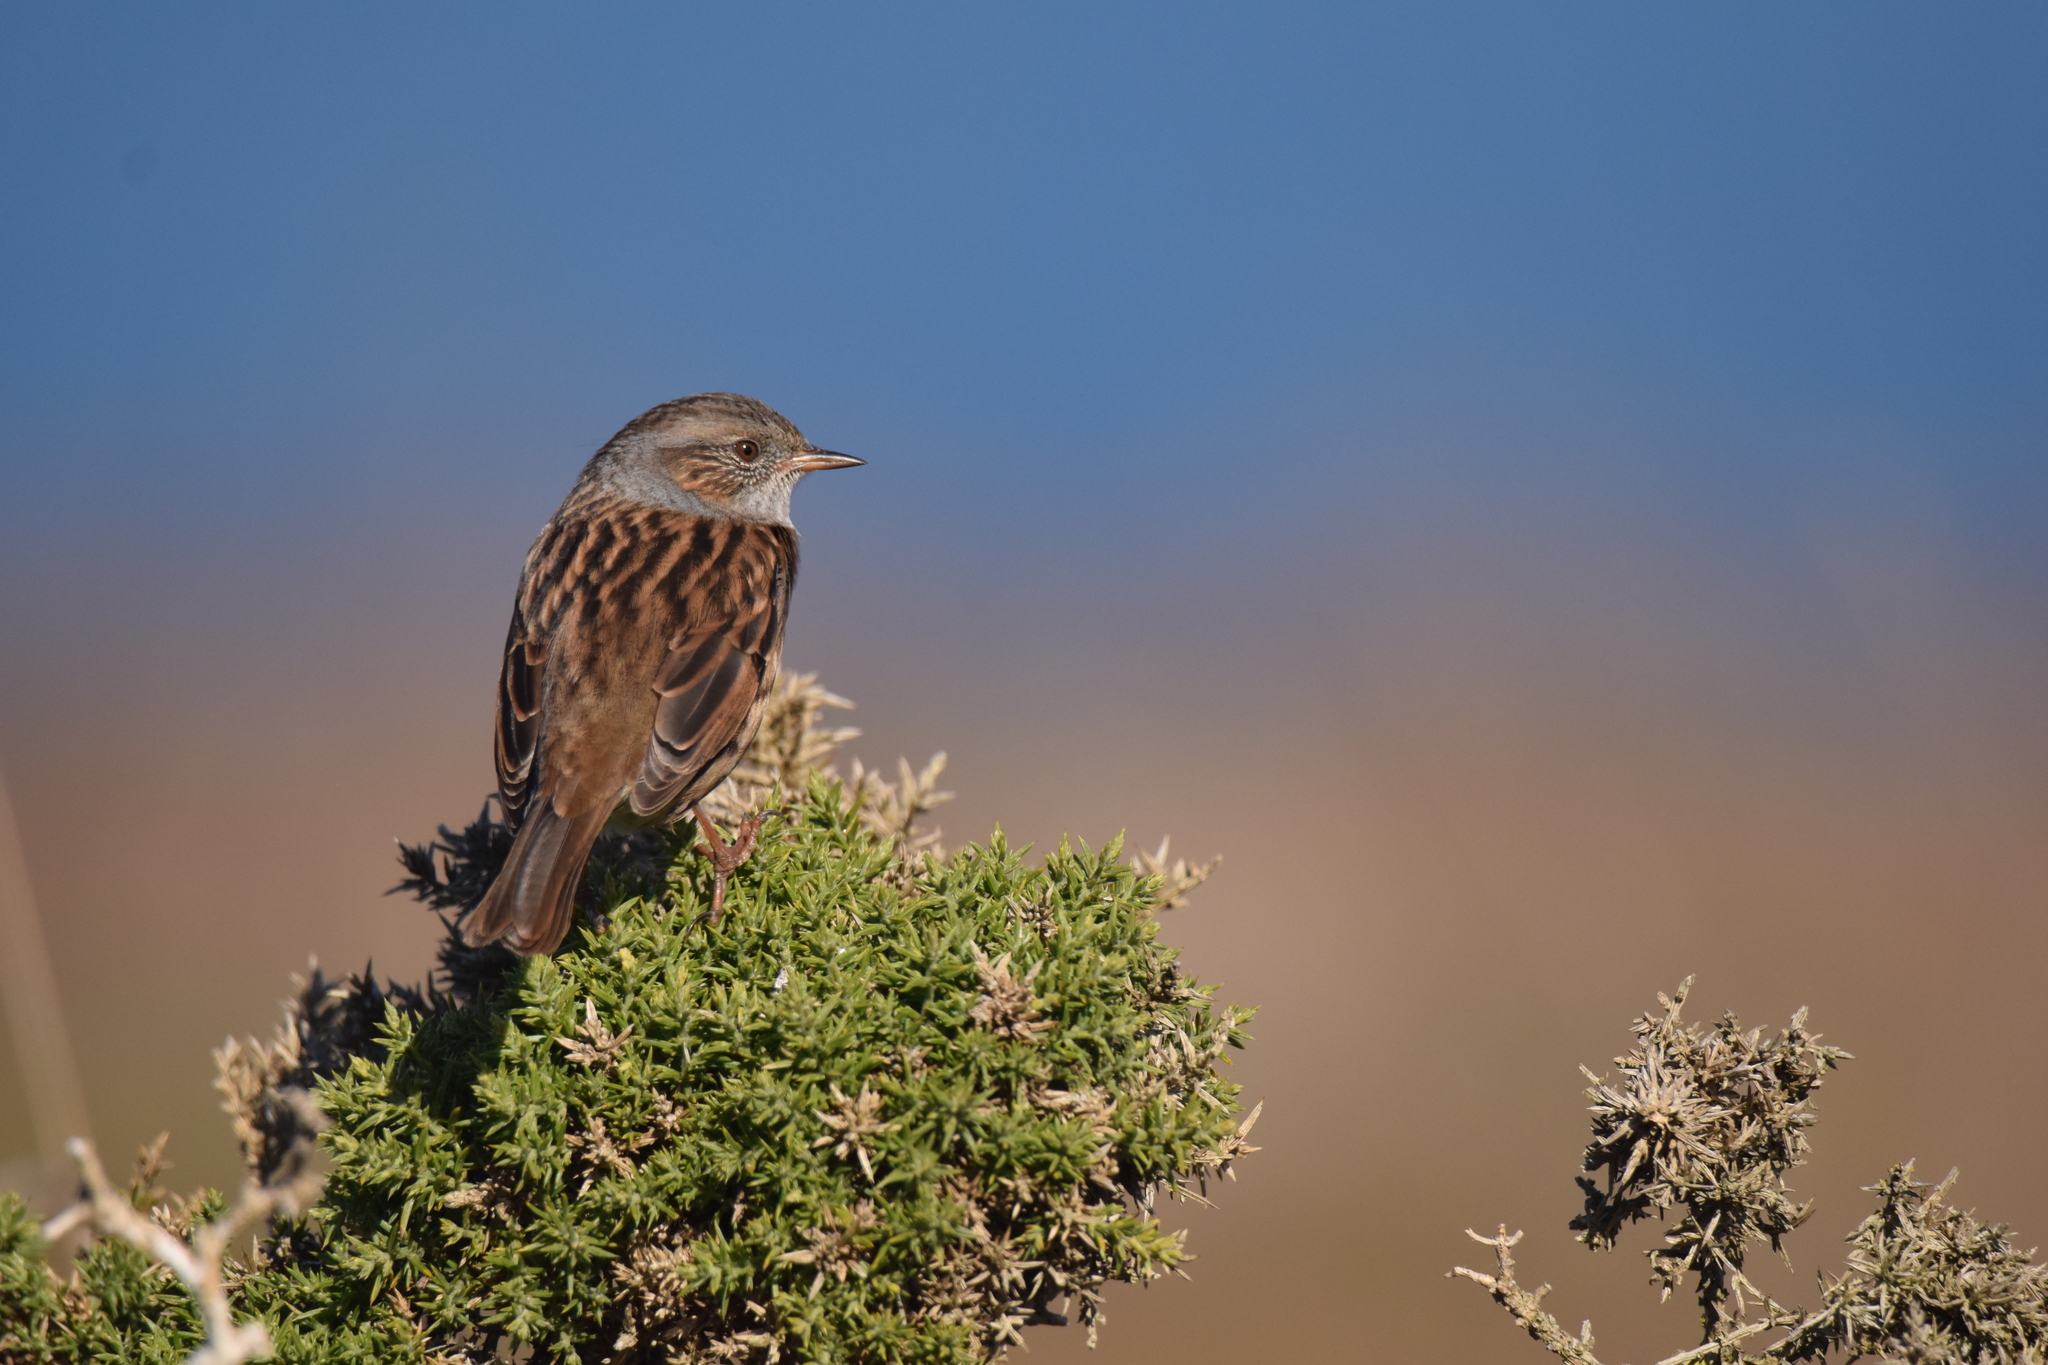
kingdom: Animalia
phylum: Chordata
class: Aves
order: Passeriformes
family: Prunellidae
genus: Prunella
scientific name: Prunella modularis
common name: Dunnock
